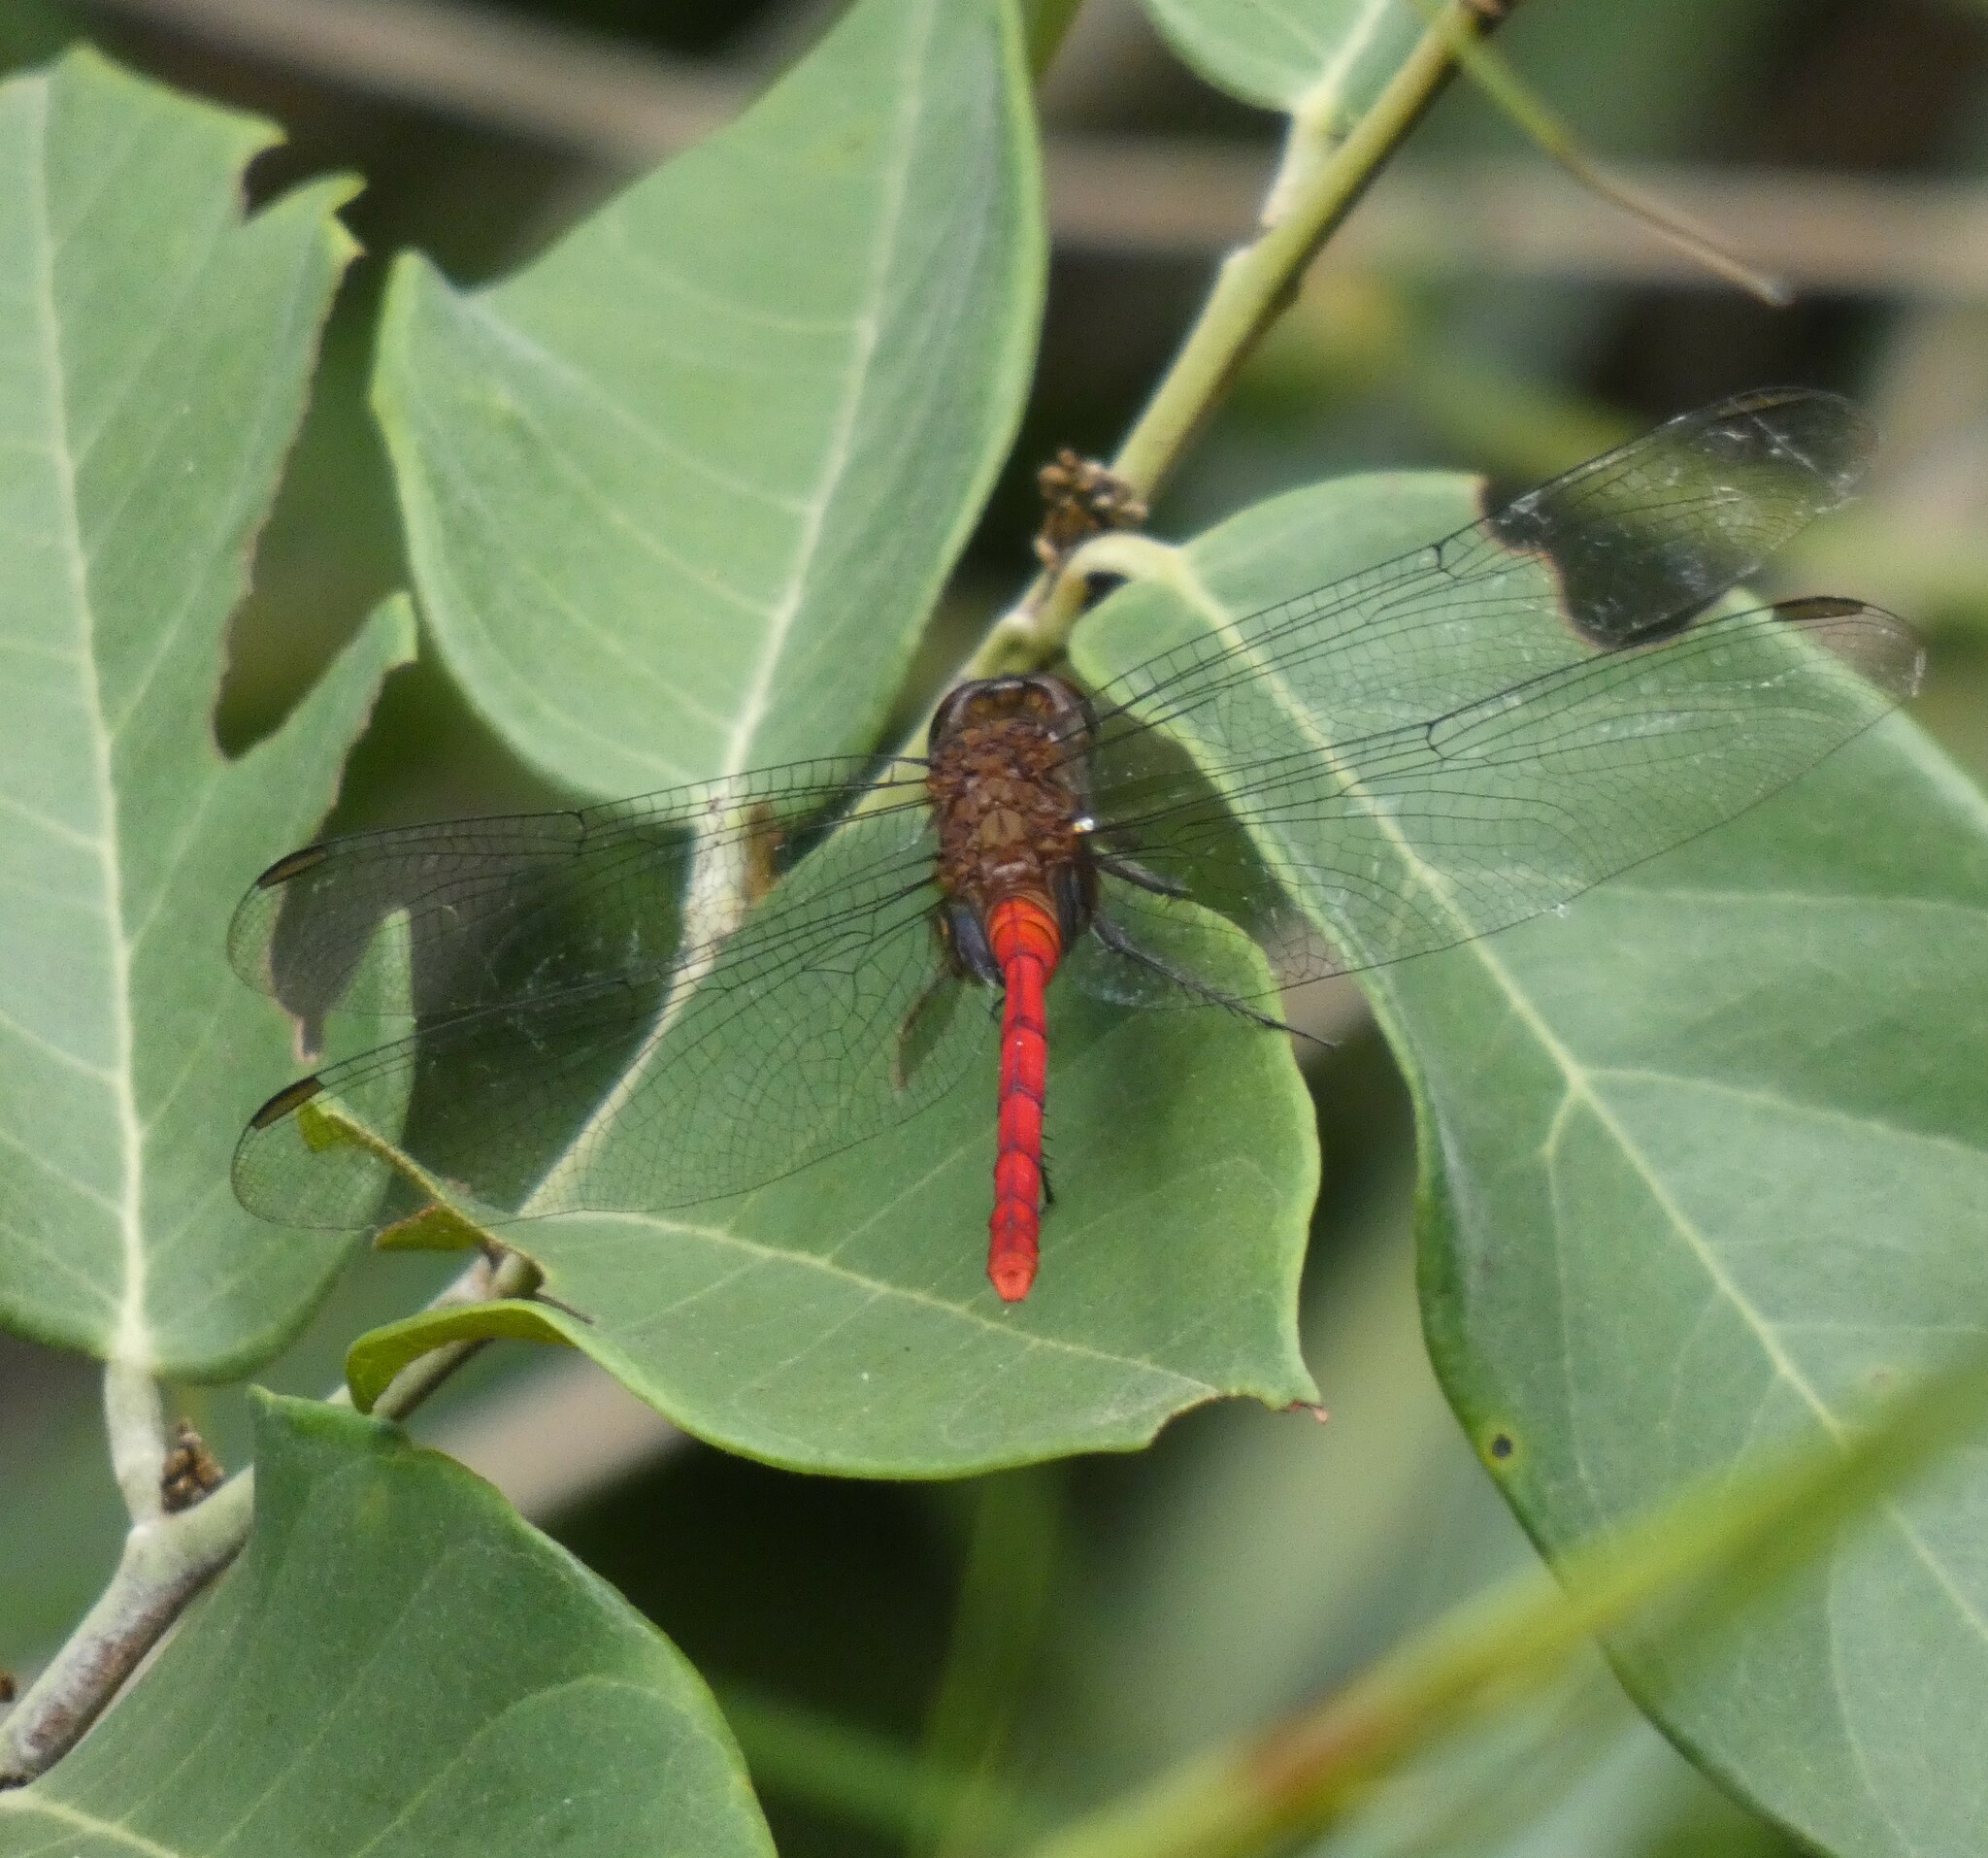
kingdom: Animalia
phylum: Arthropoda
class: Insecta
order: Odonata
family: Libellulidae
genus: Erythemis
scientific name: Erythemis haematogastra
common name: Red pondhawk
